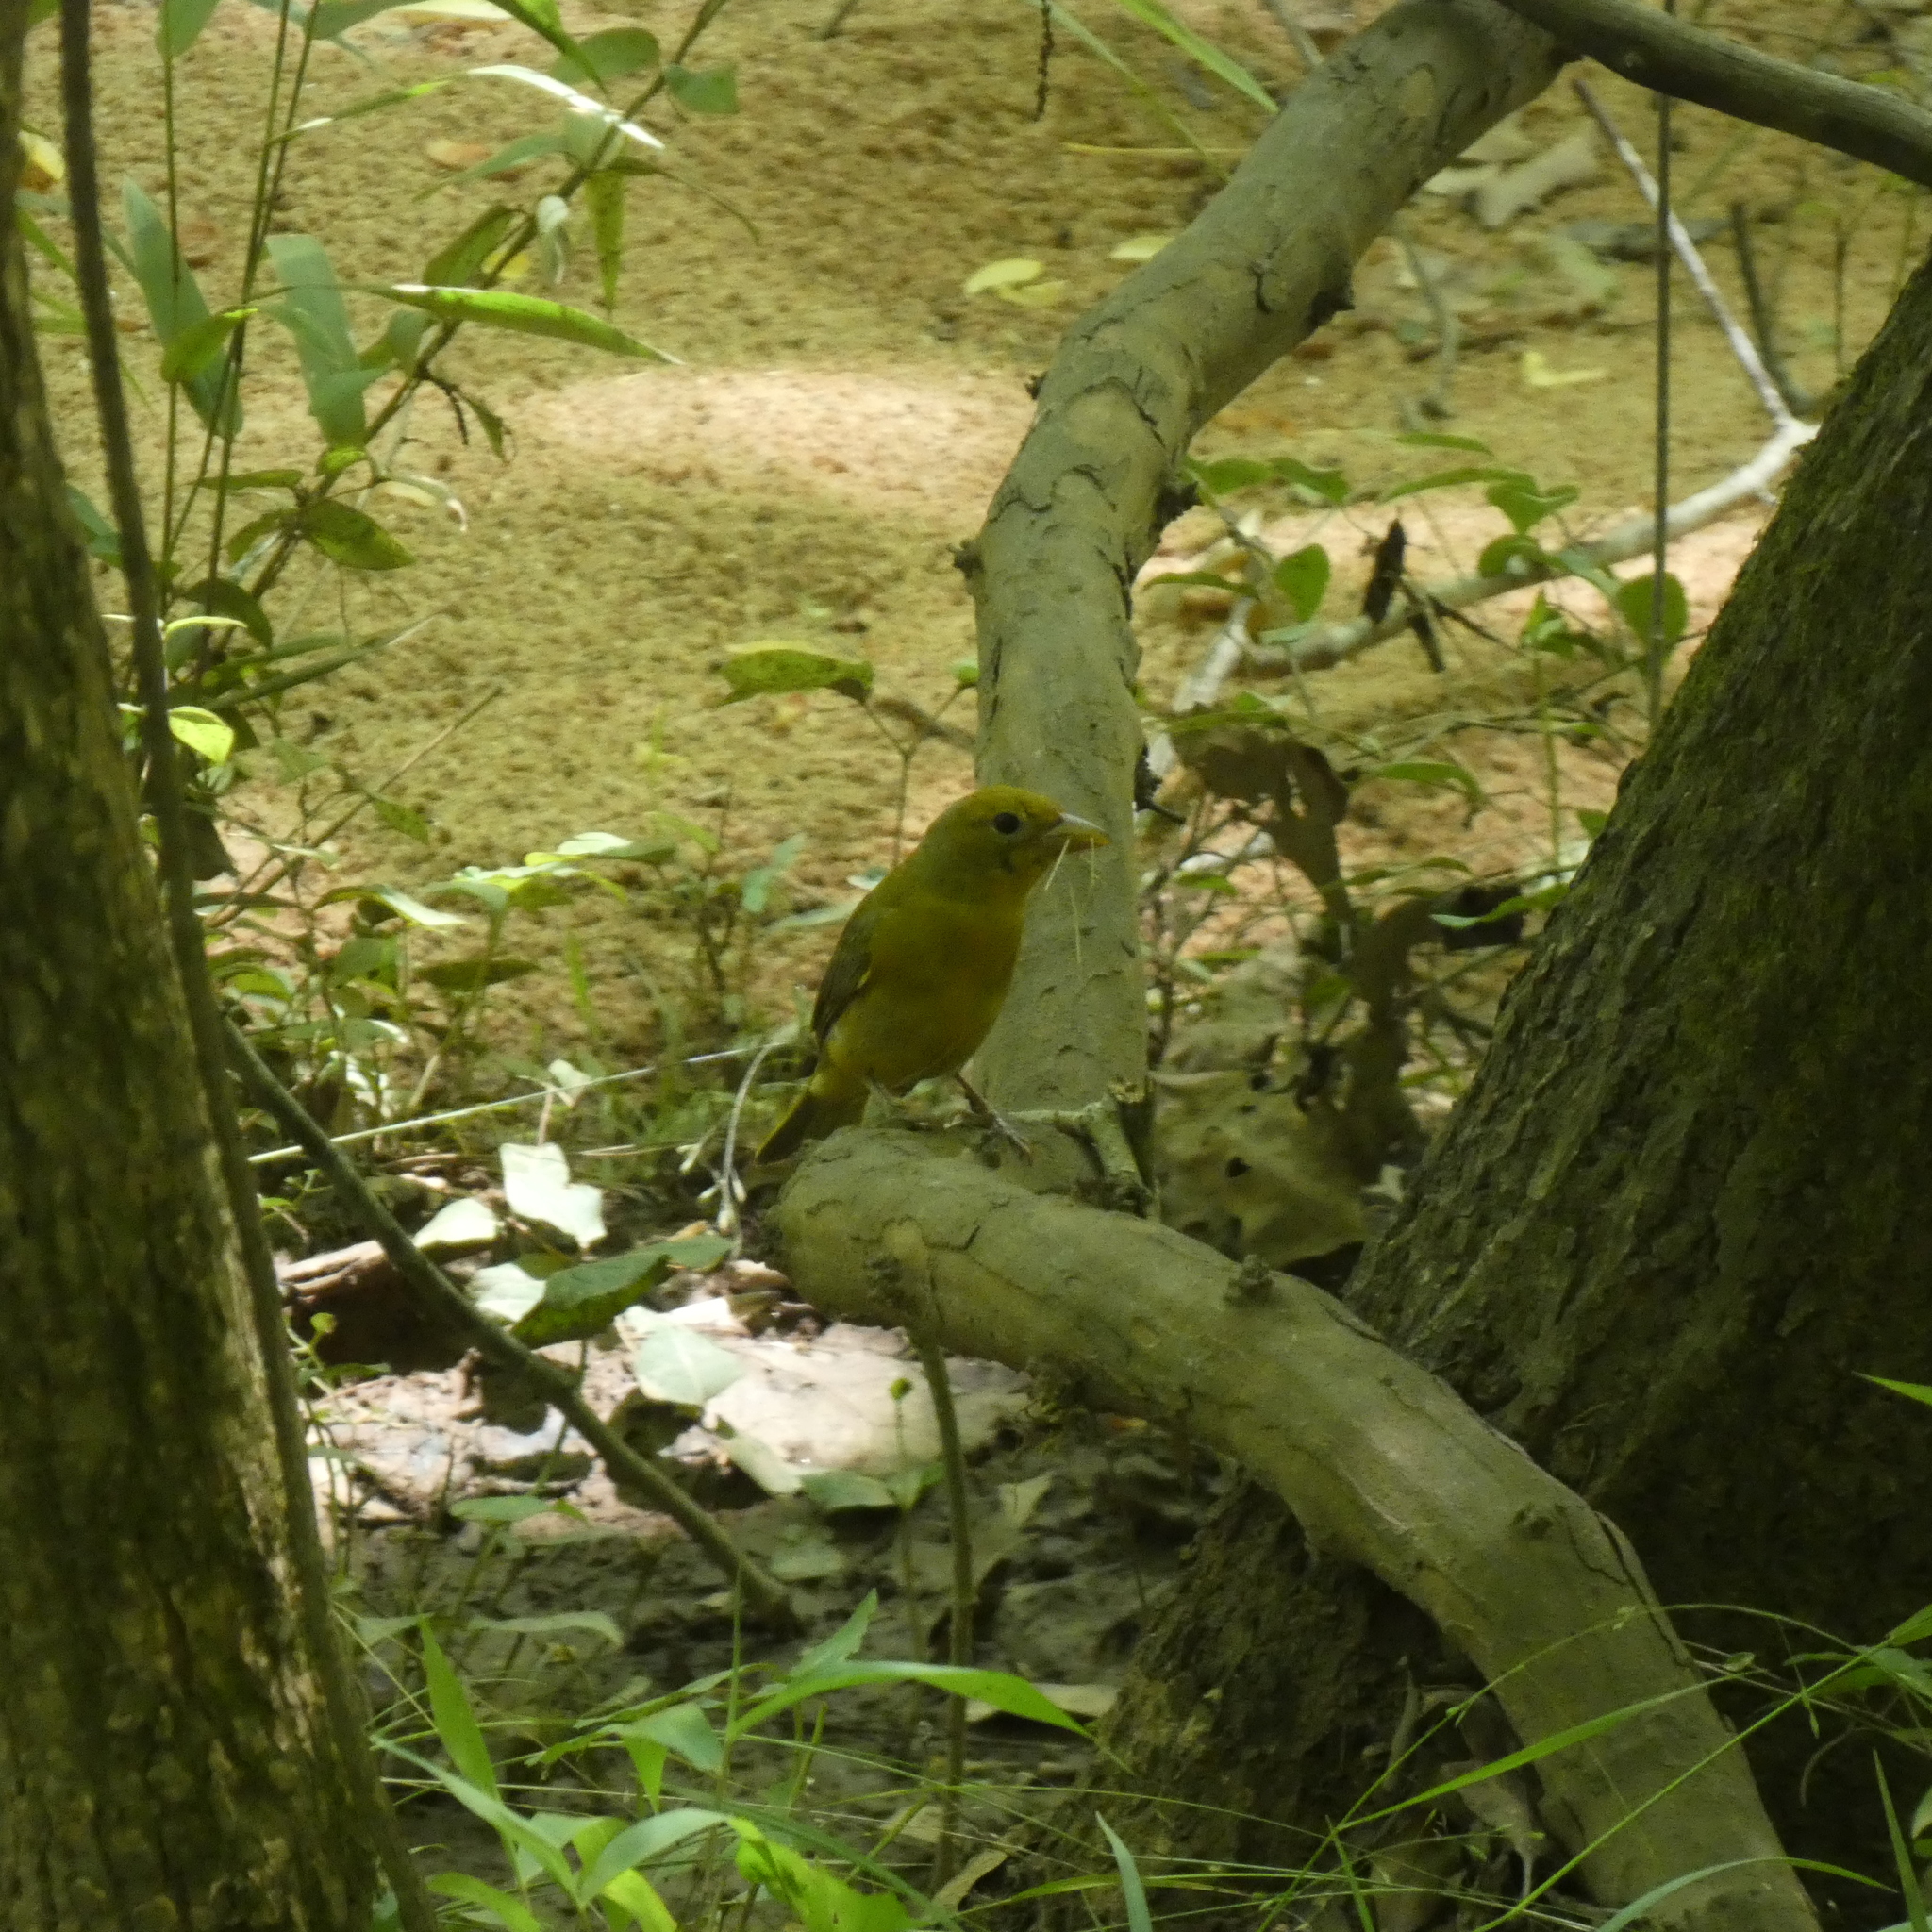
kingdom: Animalia
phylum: Chordata
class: Aves
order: Passeriformes
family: Cardinalidae
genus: Piranga
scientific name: Piranga rubra
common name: Summer tanager
